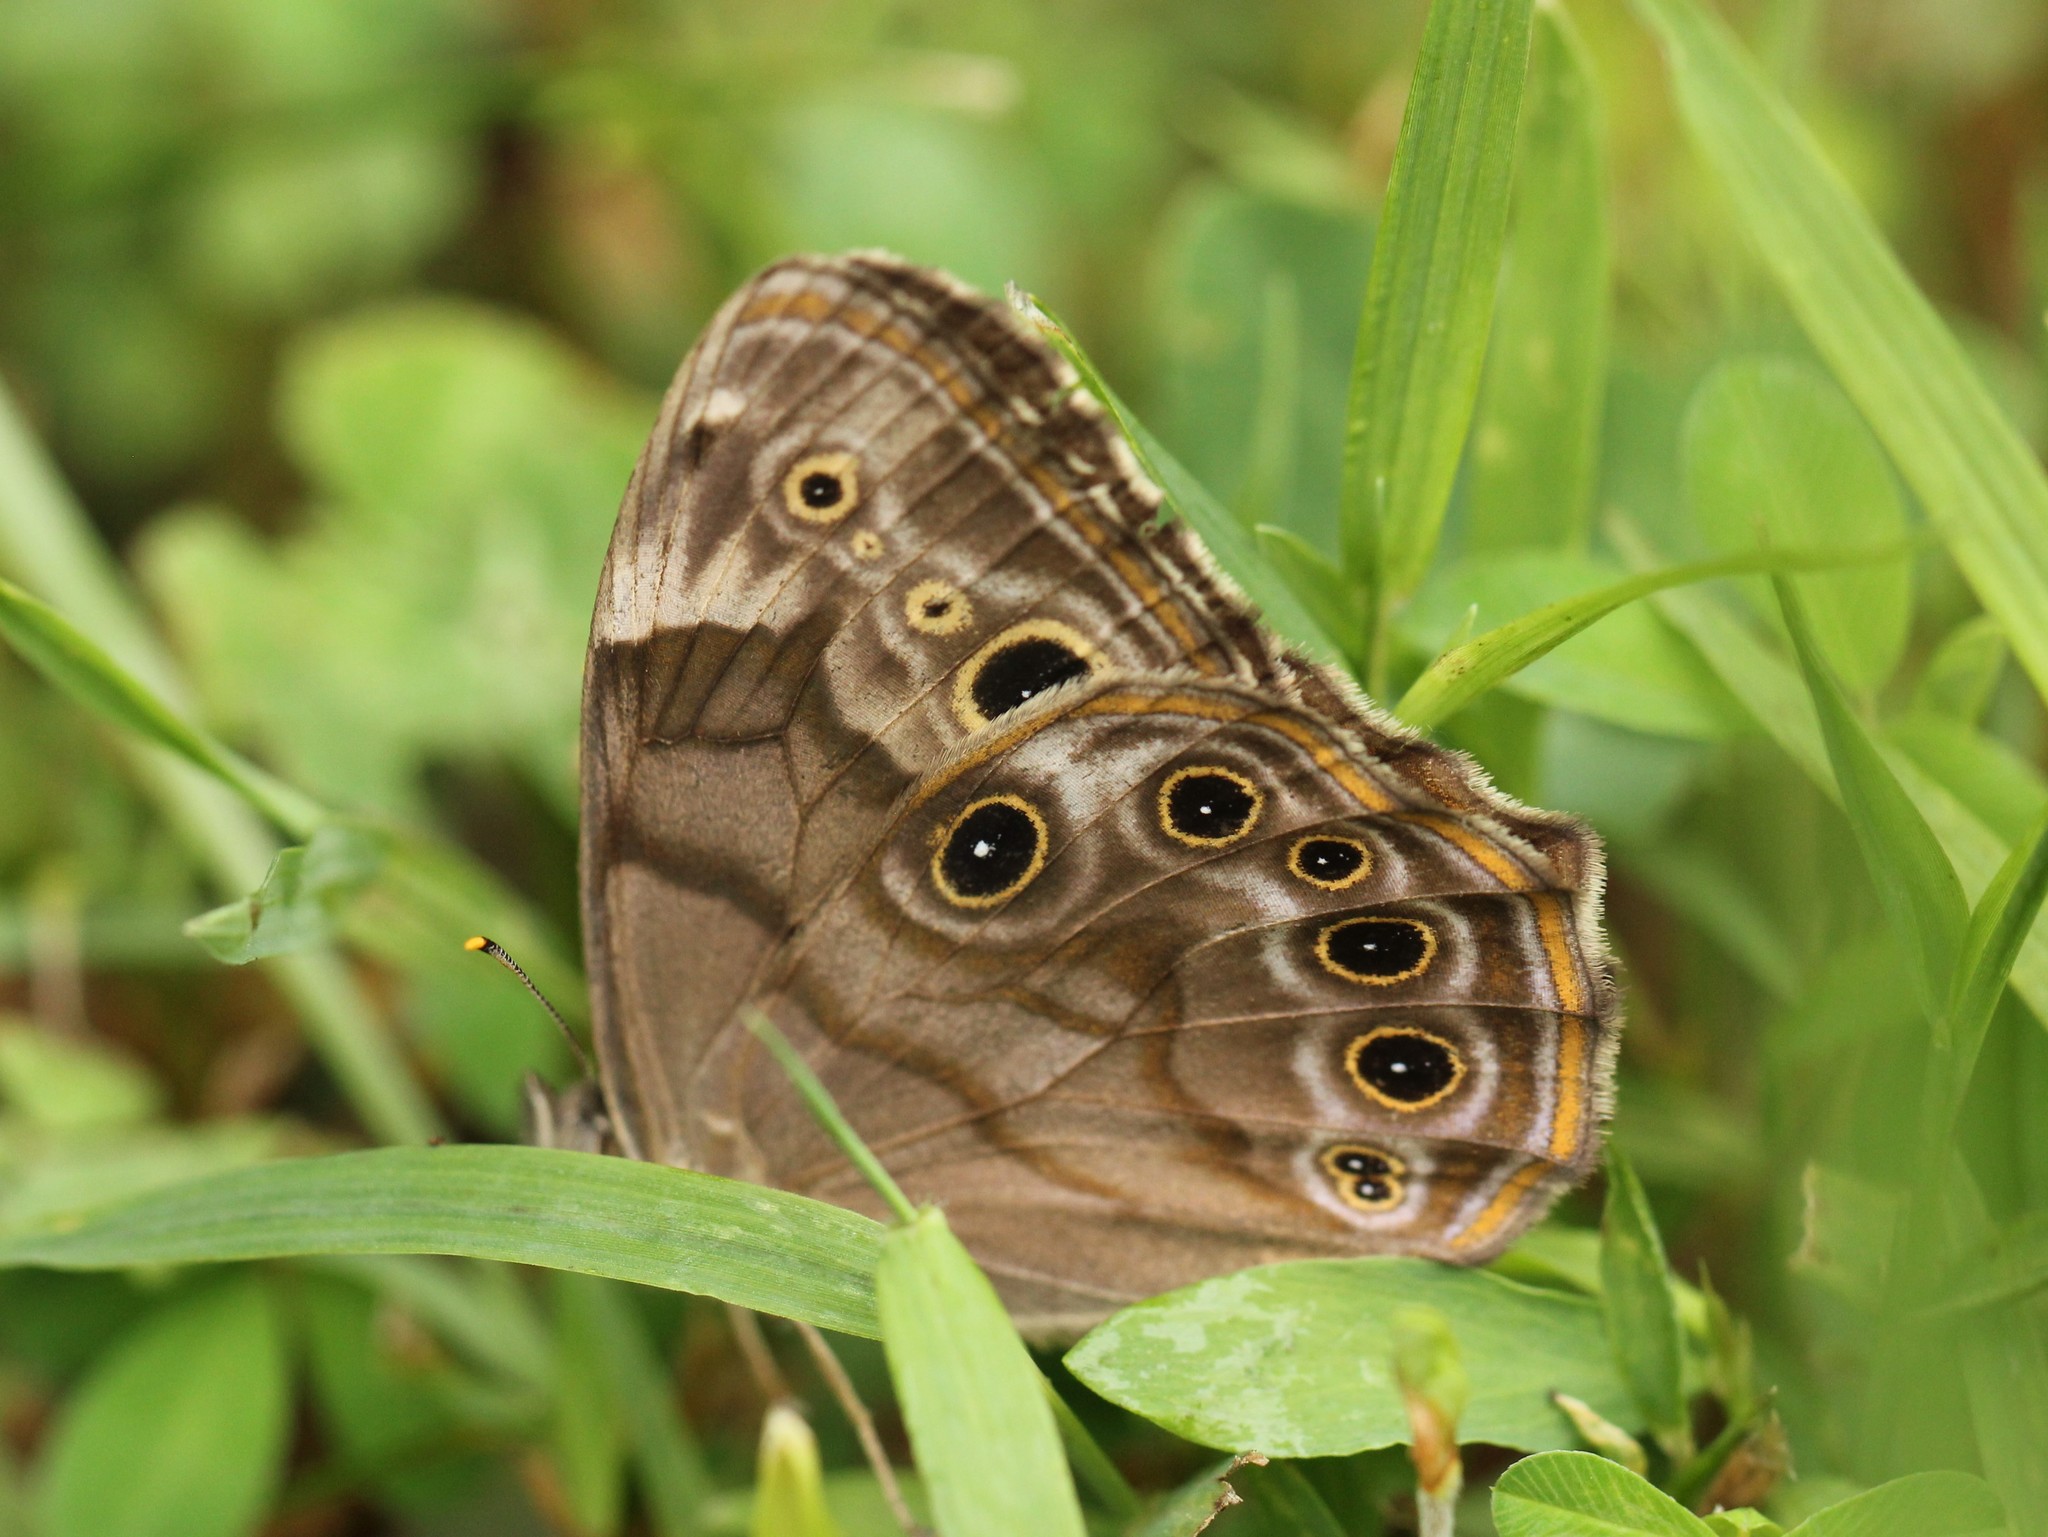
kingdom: Animalia
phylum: Arthropoda
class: Insecta
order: Lepidoptera
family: Nymphalidae
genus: Lethe
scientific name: Lethe anthedon
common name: Northern pearly-eye
